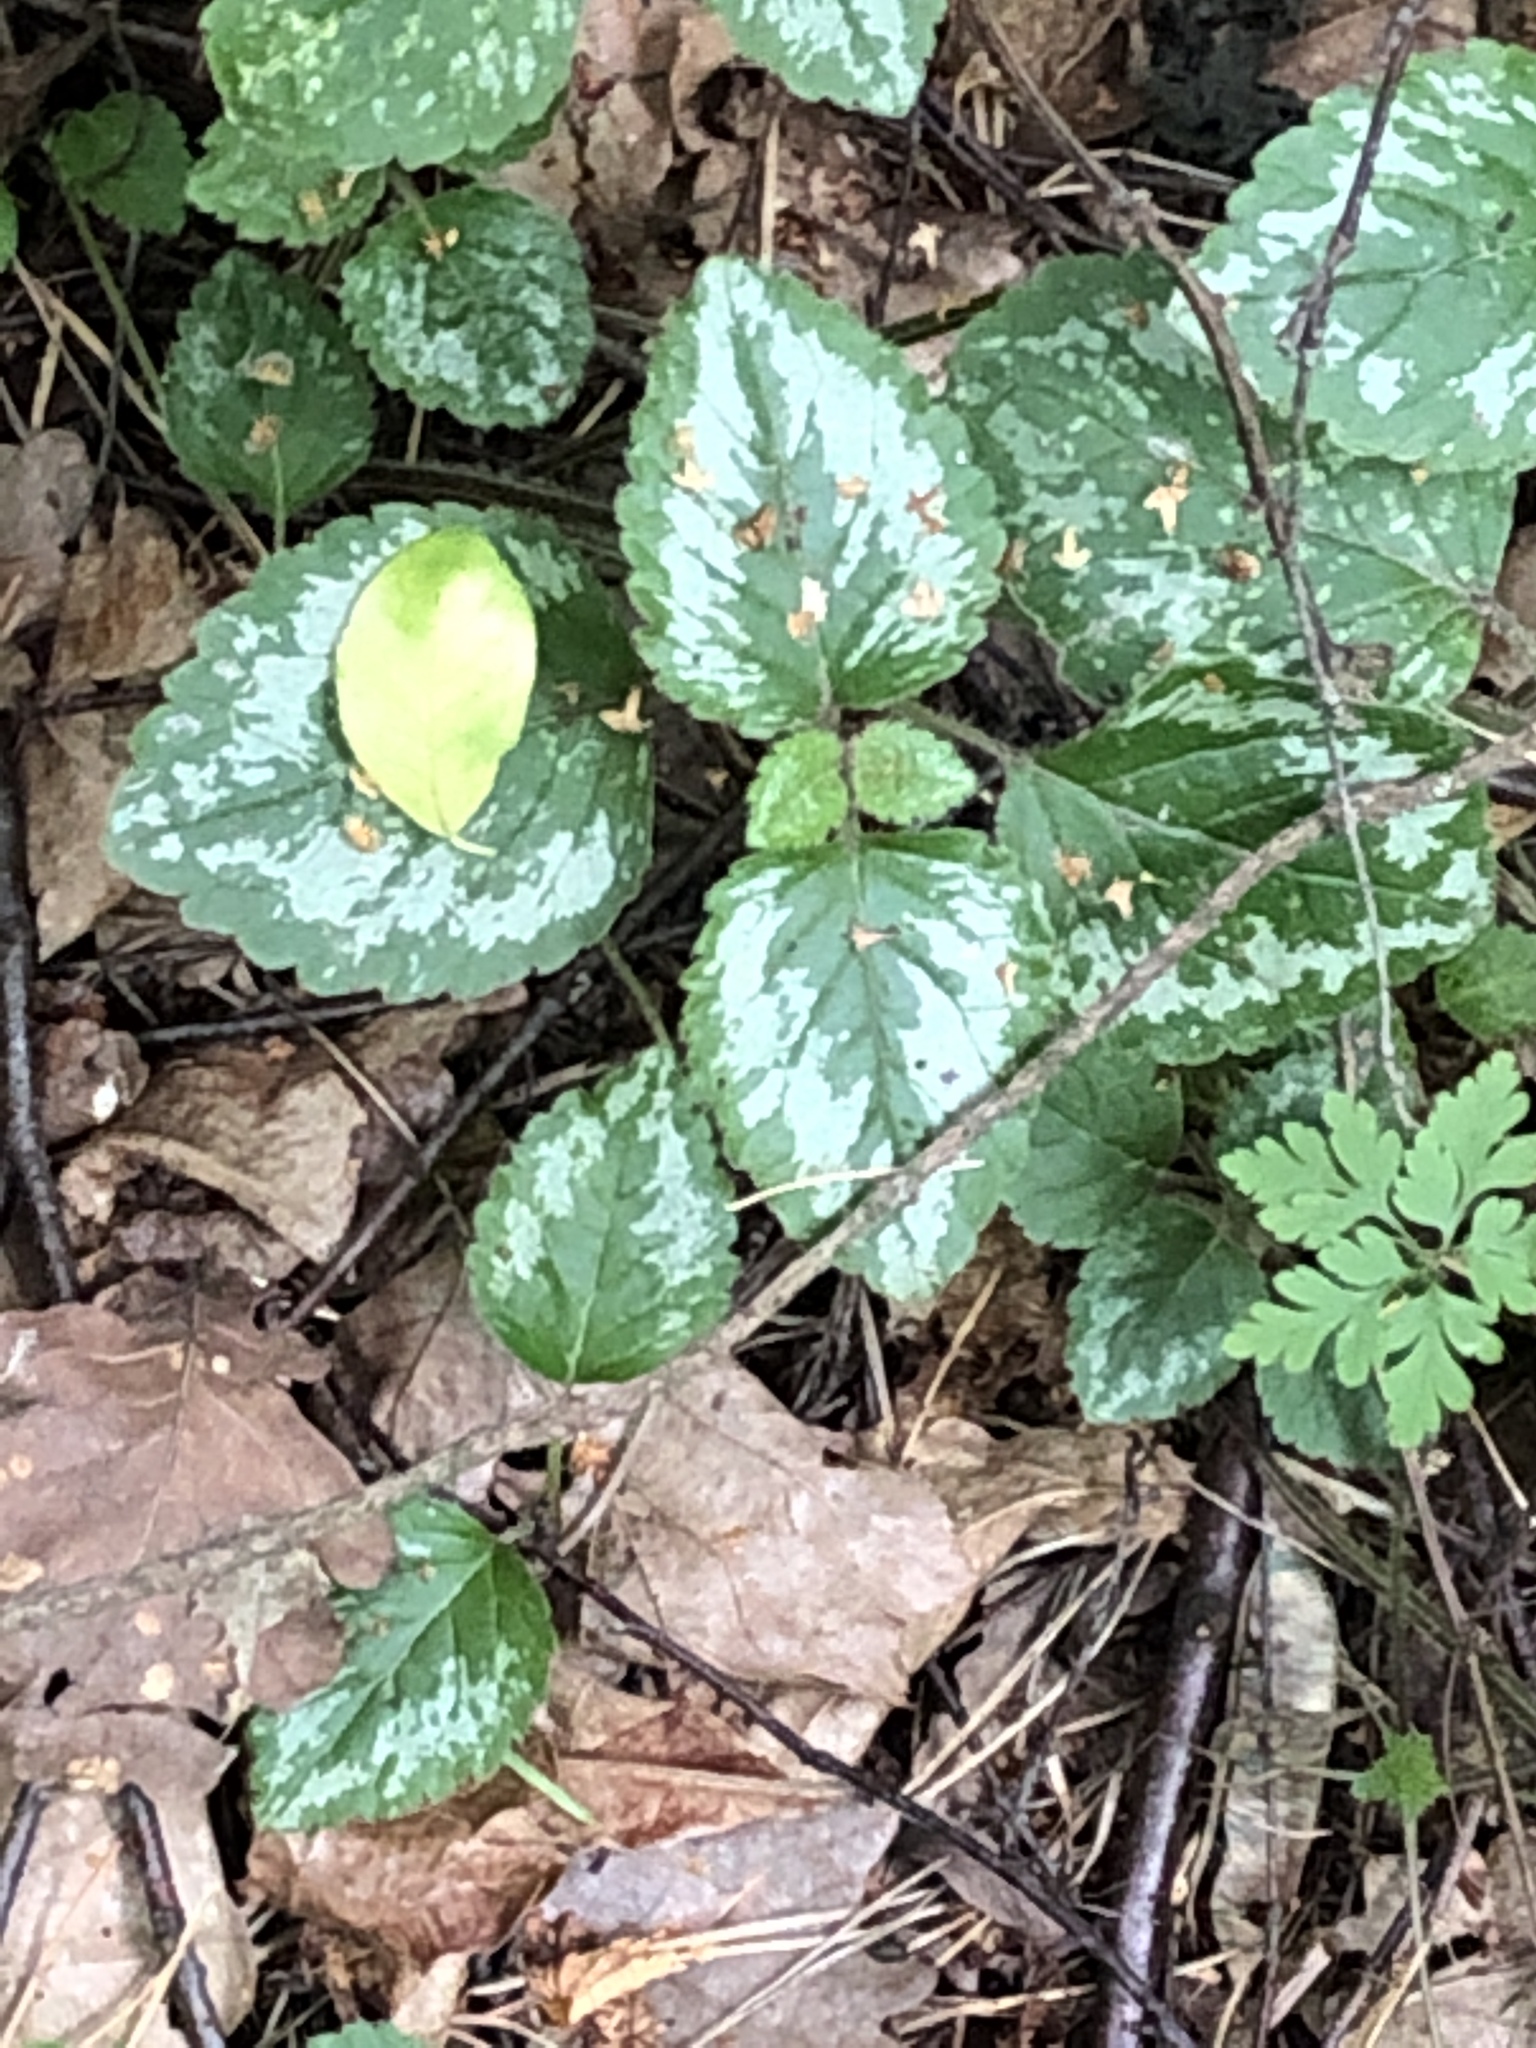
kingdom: Plantae
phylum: Tracheophyta
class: Magnoliopsida
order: Lamiales
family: Lamiaceae
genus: Lamium
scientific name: Lamium galeobdolon
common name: Yellow archangel
